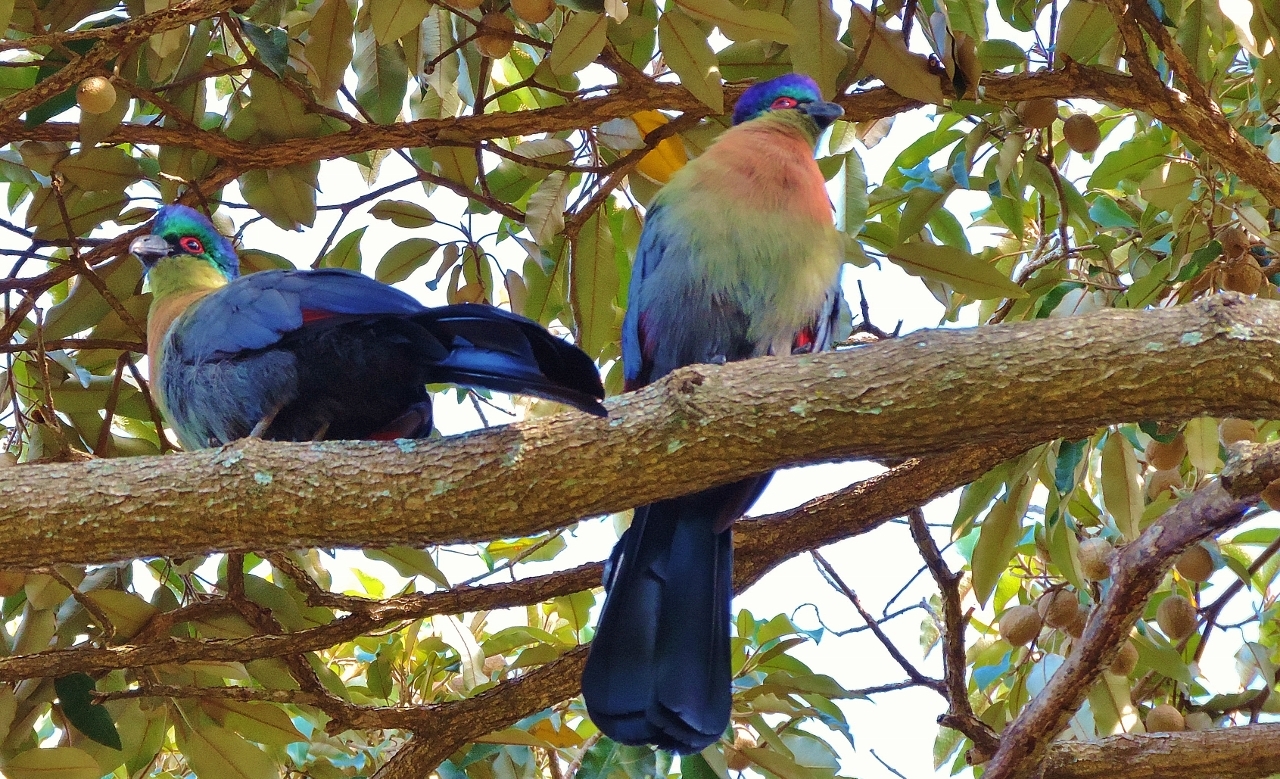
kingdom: Animalia
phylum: Chordata
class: Aves
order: Musophagiformes
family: Musophagidae
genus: Tauraco
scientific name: Tauraco porphyreolophus
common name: Purple-crested turaco
